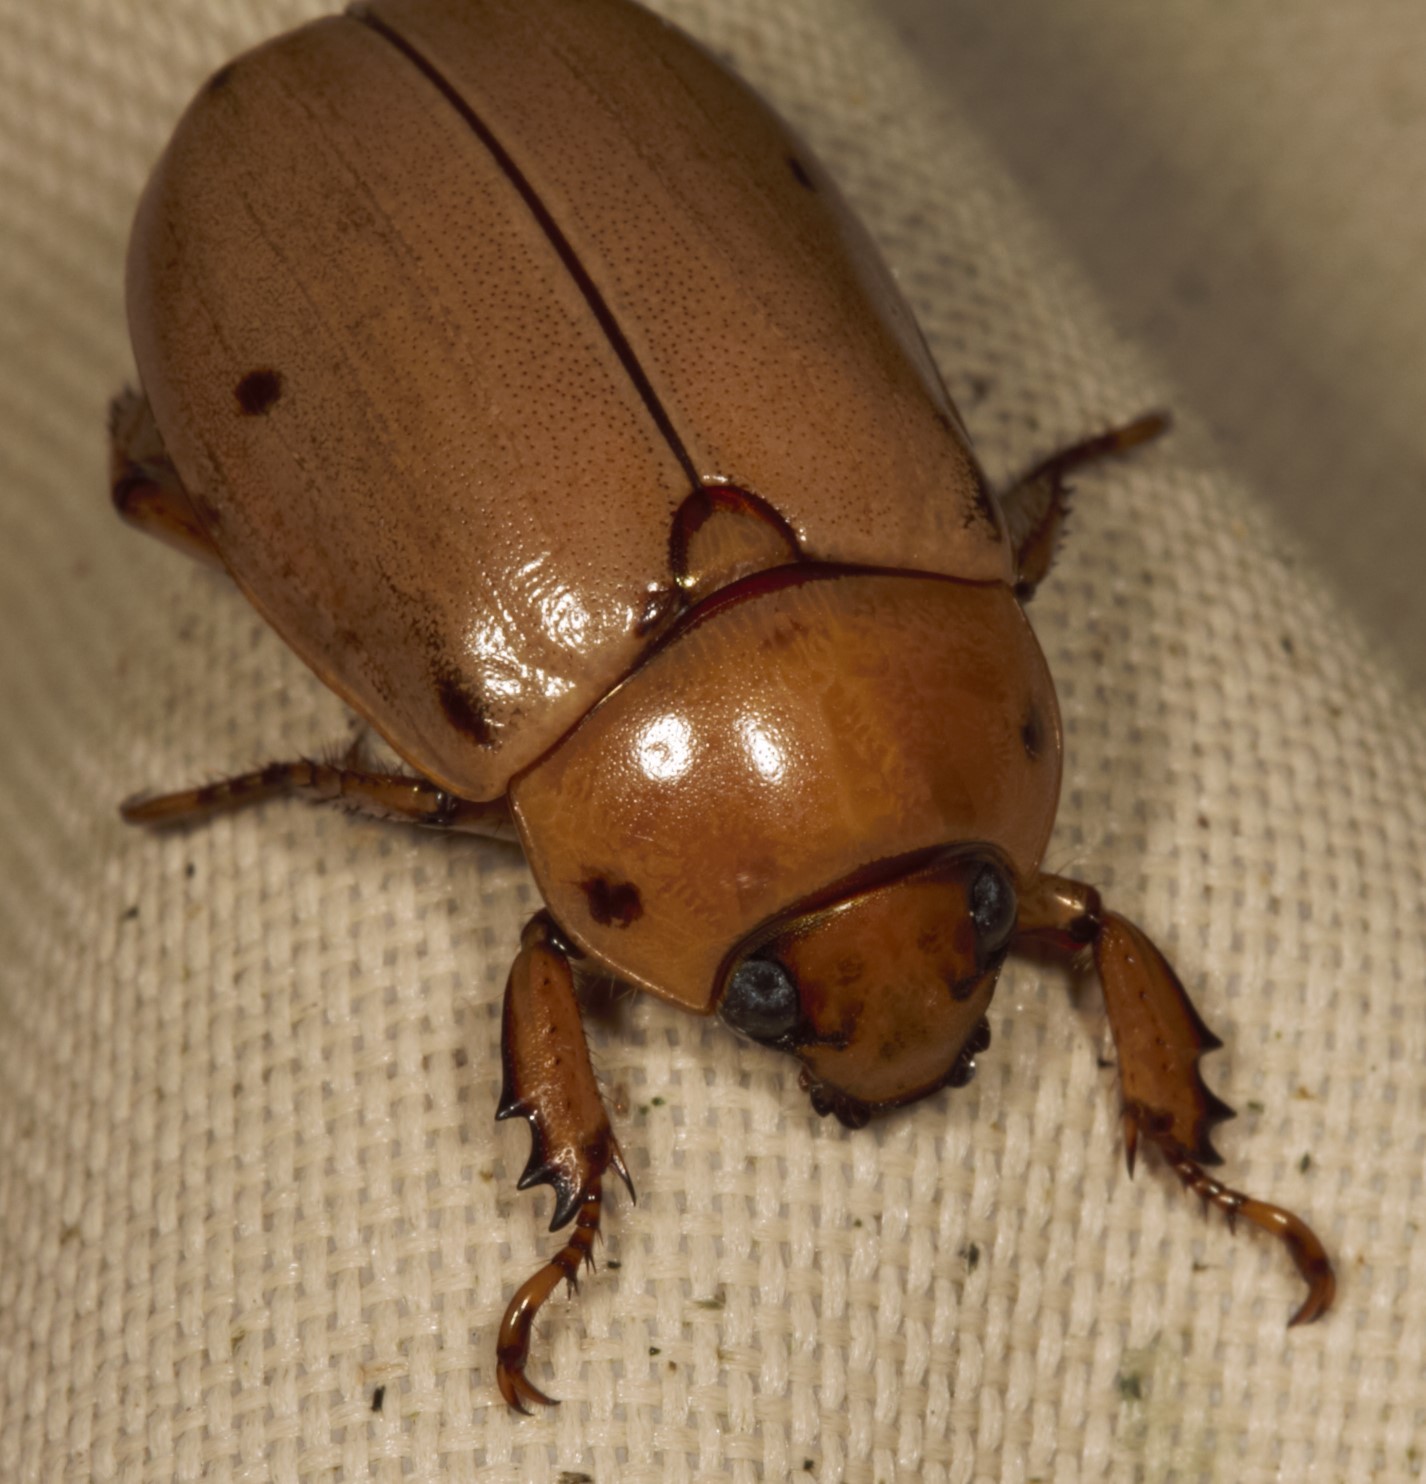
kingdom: Animalia
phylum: Arthropoda
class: Insecta
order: Coleoptera
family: Scarabaeidae
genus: Pelidnota
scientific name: Pelidnota punctata
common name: Grapevine beetle
